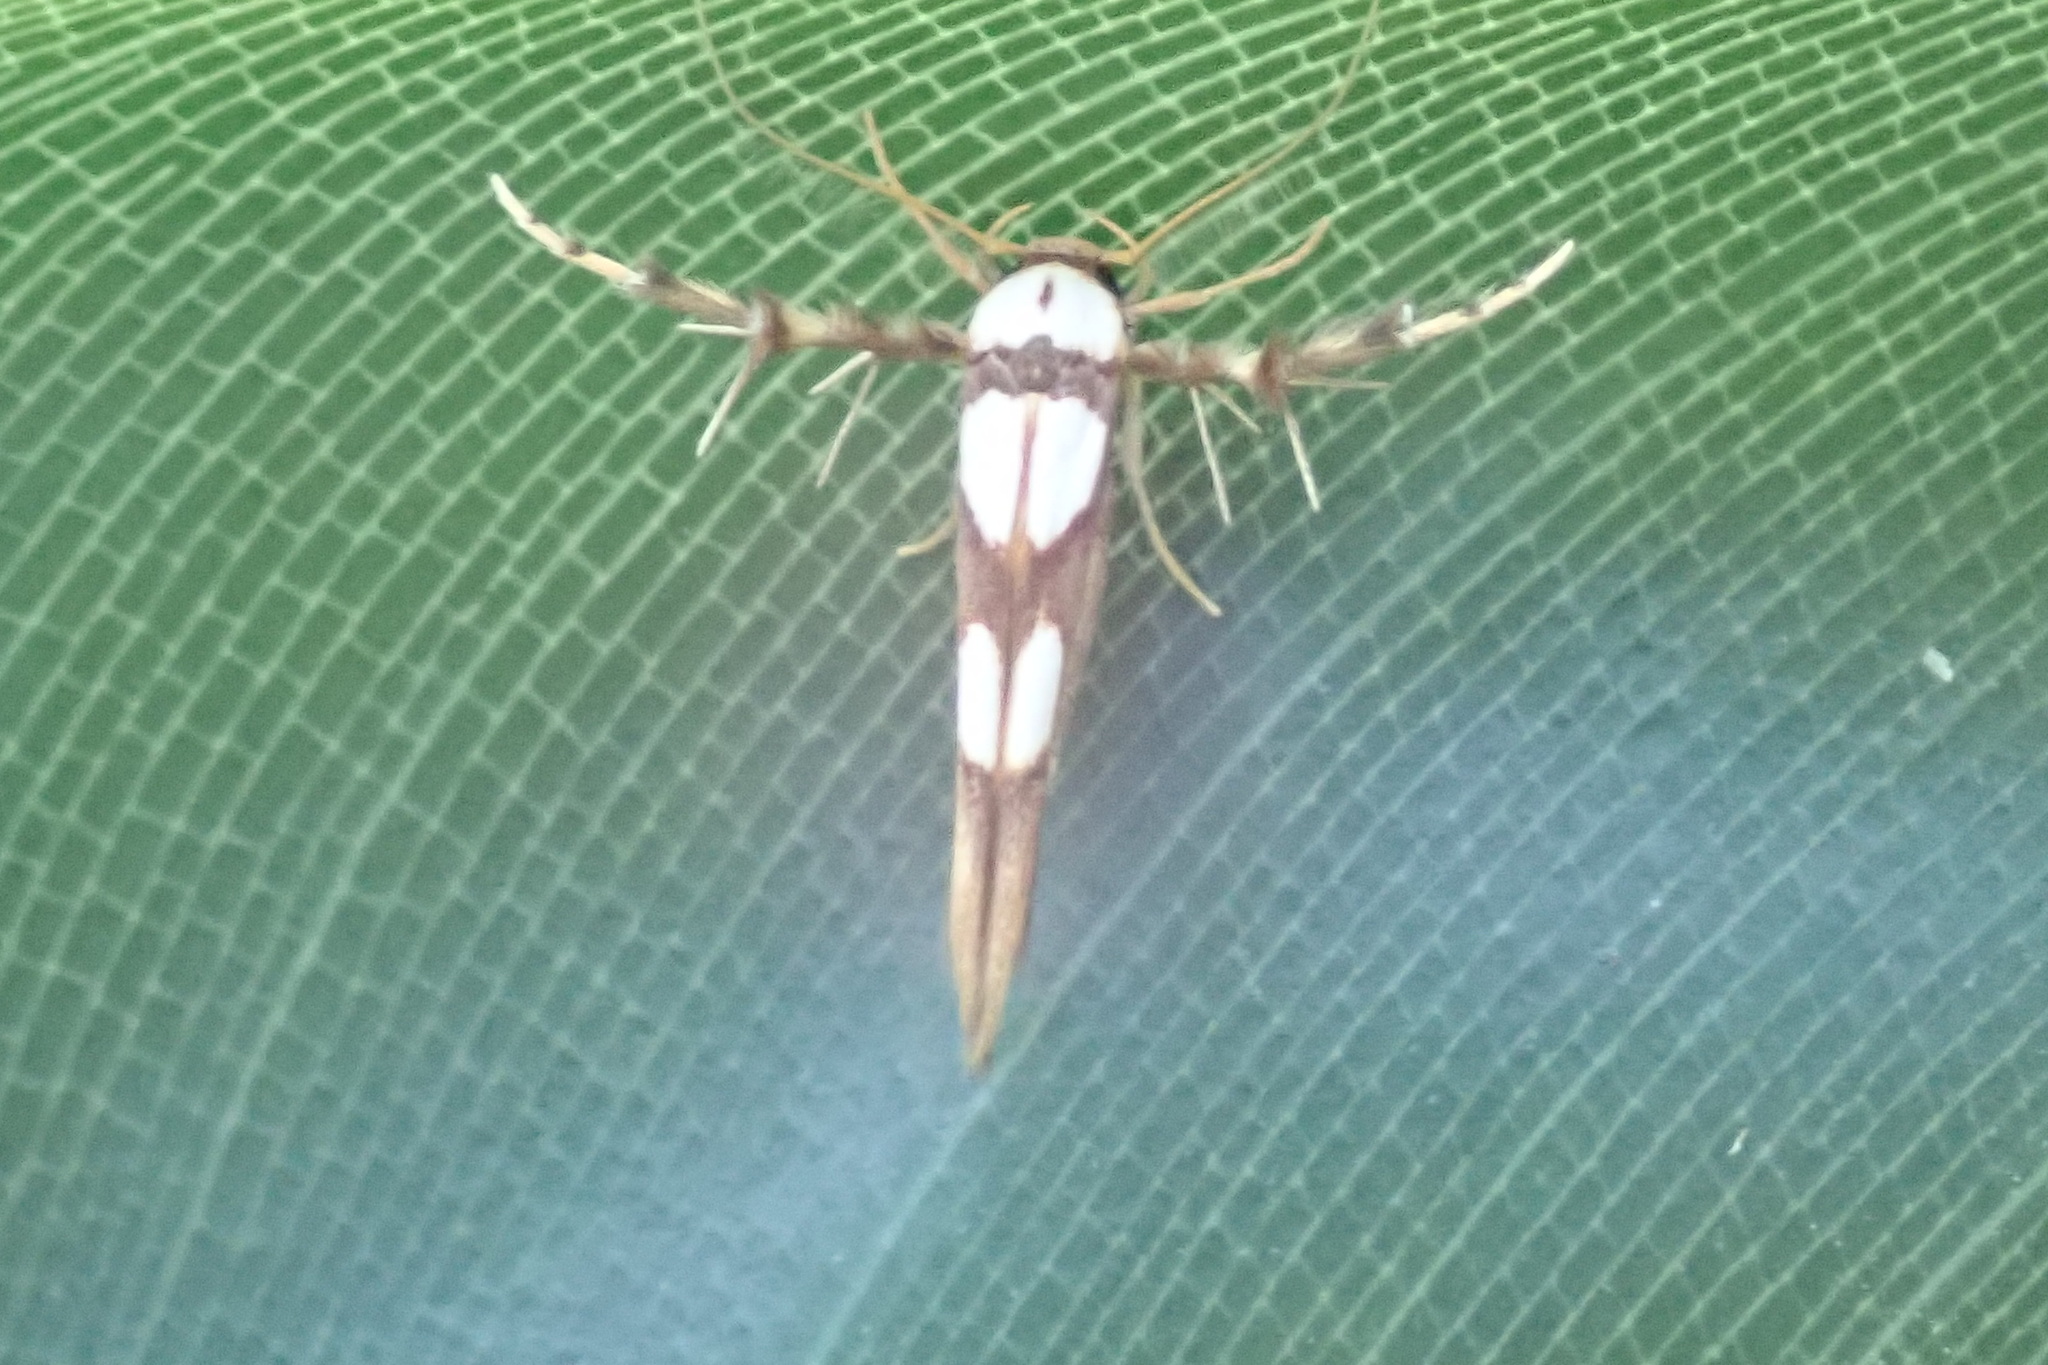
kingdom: Animalia
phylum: Arthropoda
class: Insecta
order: Lepidoptera
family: Stathmopodidae
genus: Stathmopoda
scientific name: Stathmopoda maculata
